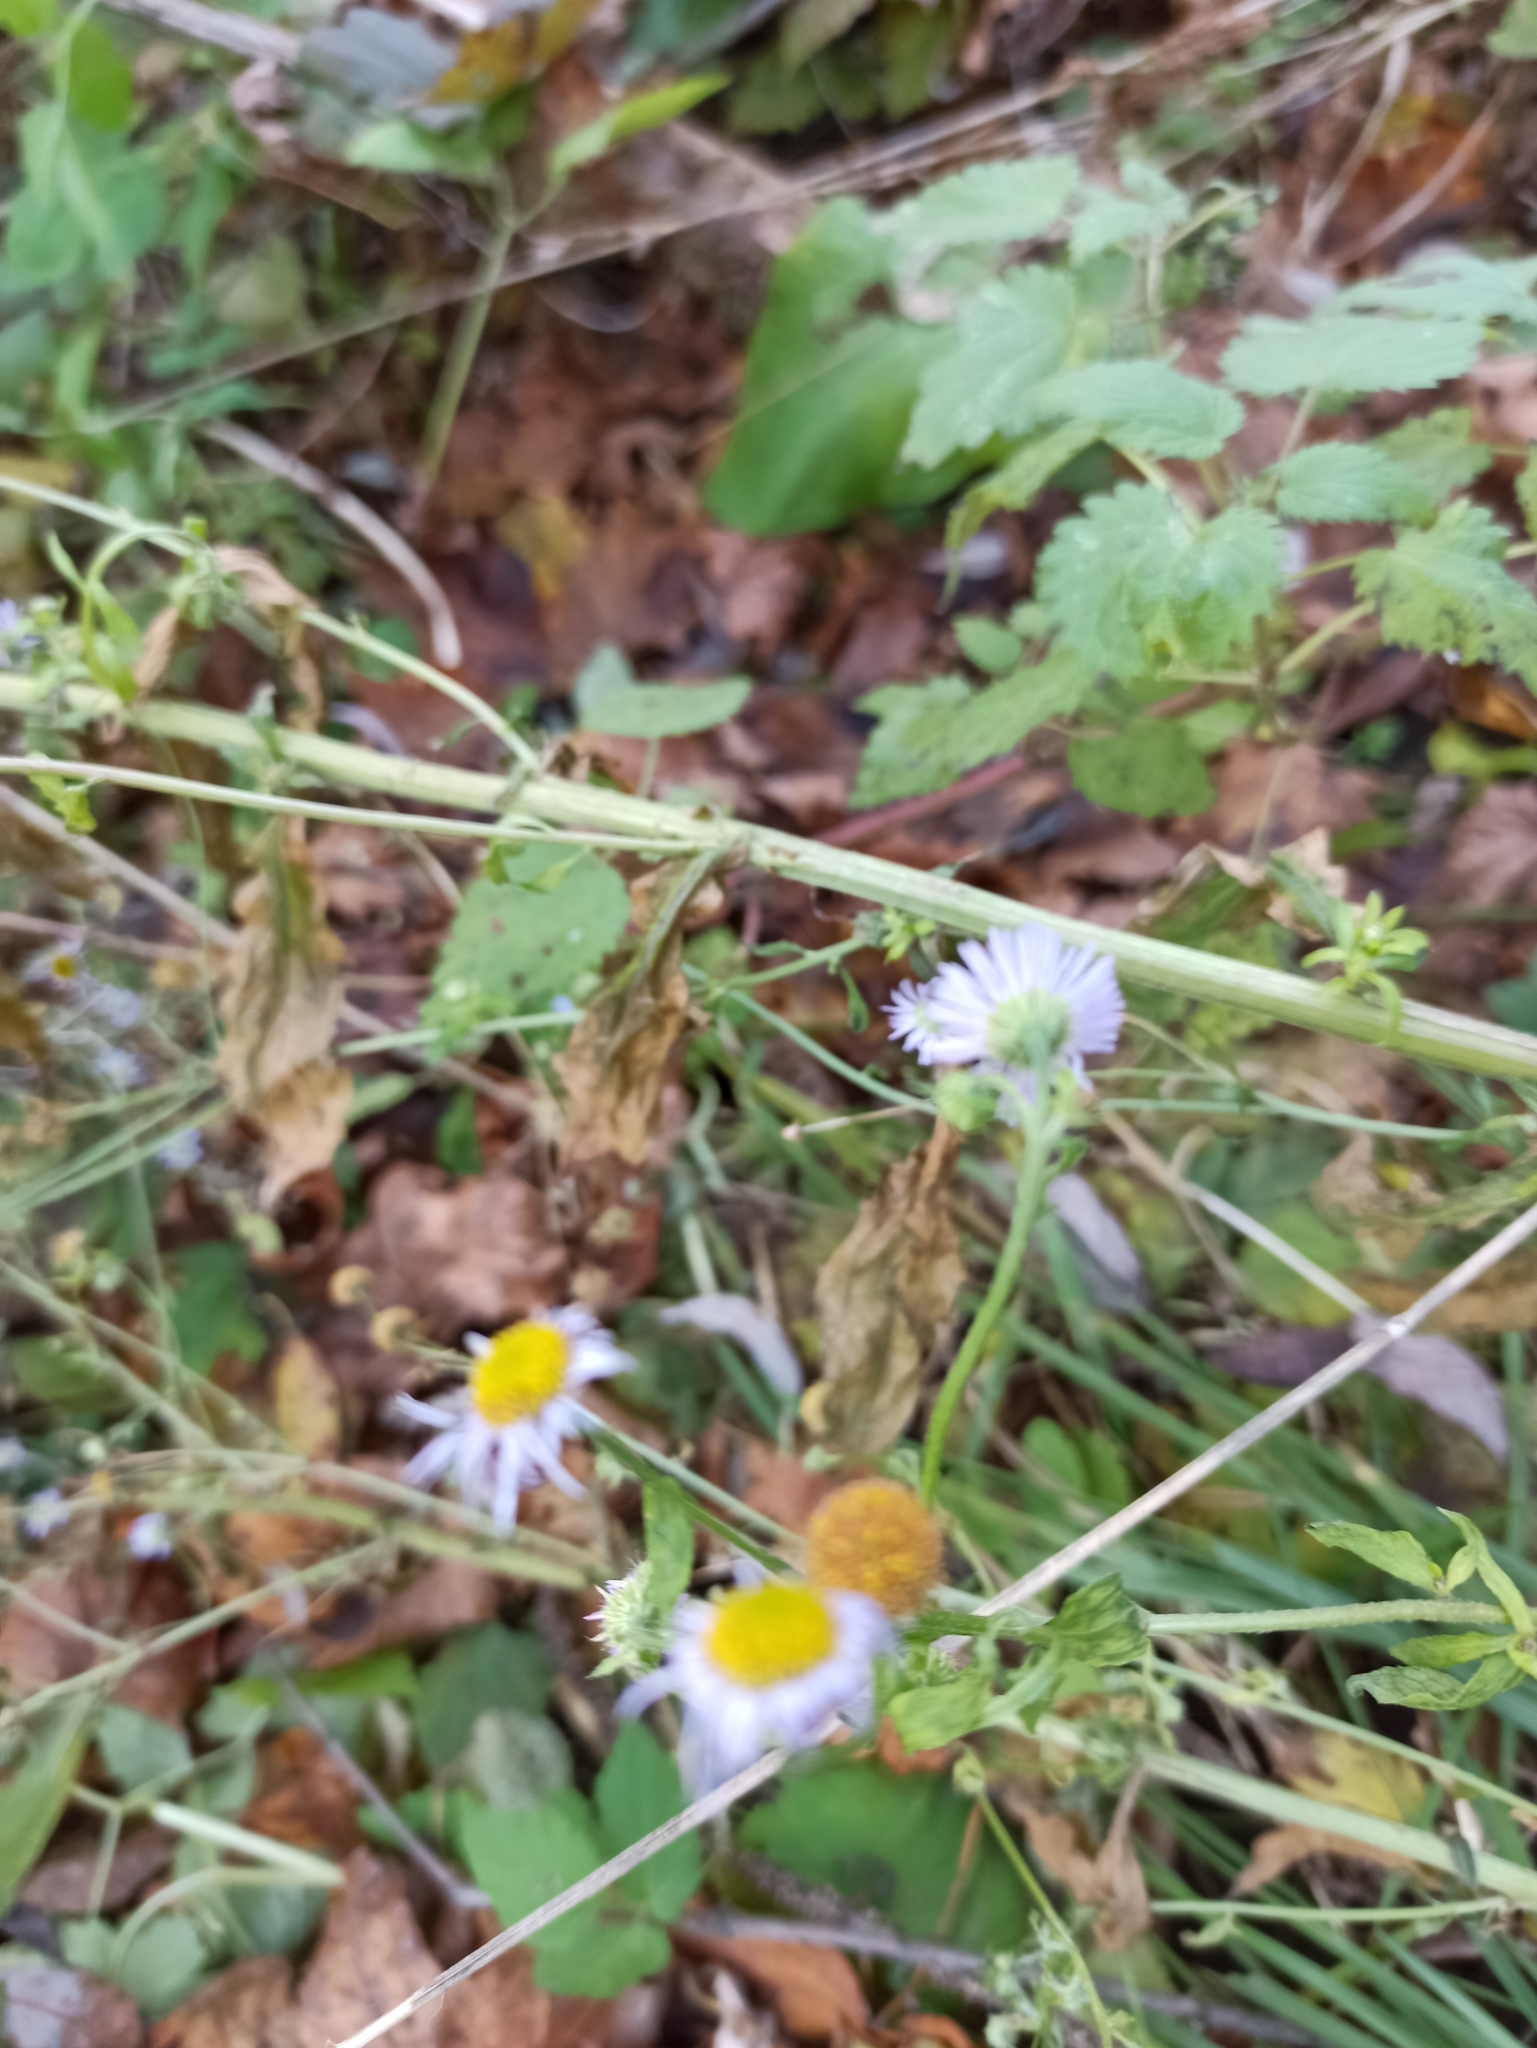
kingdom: Plantae
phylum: Tracheophyta
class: Magnoliopsida
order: Asterales
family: Asteraceae
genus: Erigeron
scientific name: Erigeron annuus
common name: Tall fleabane
